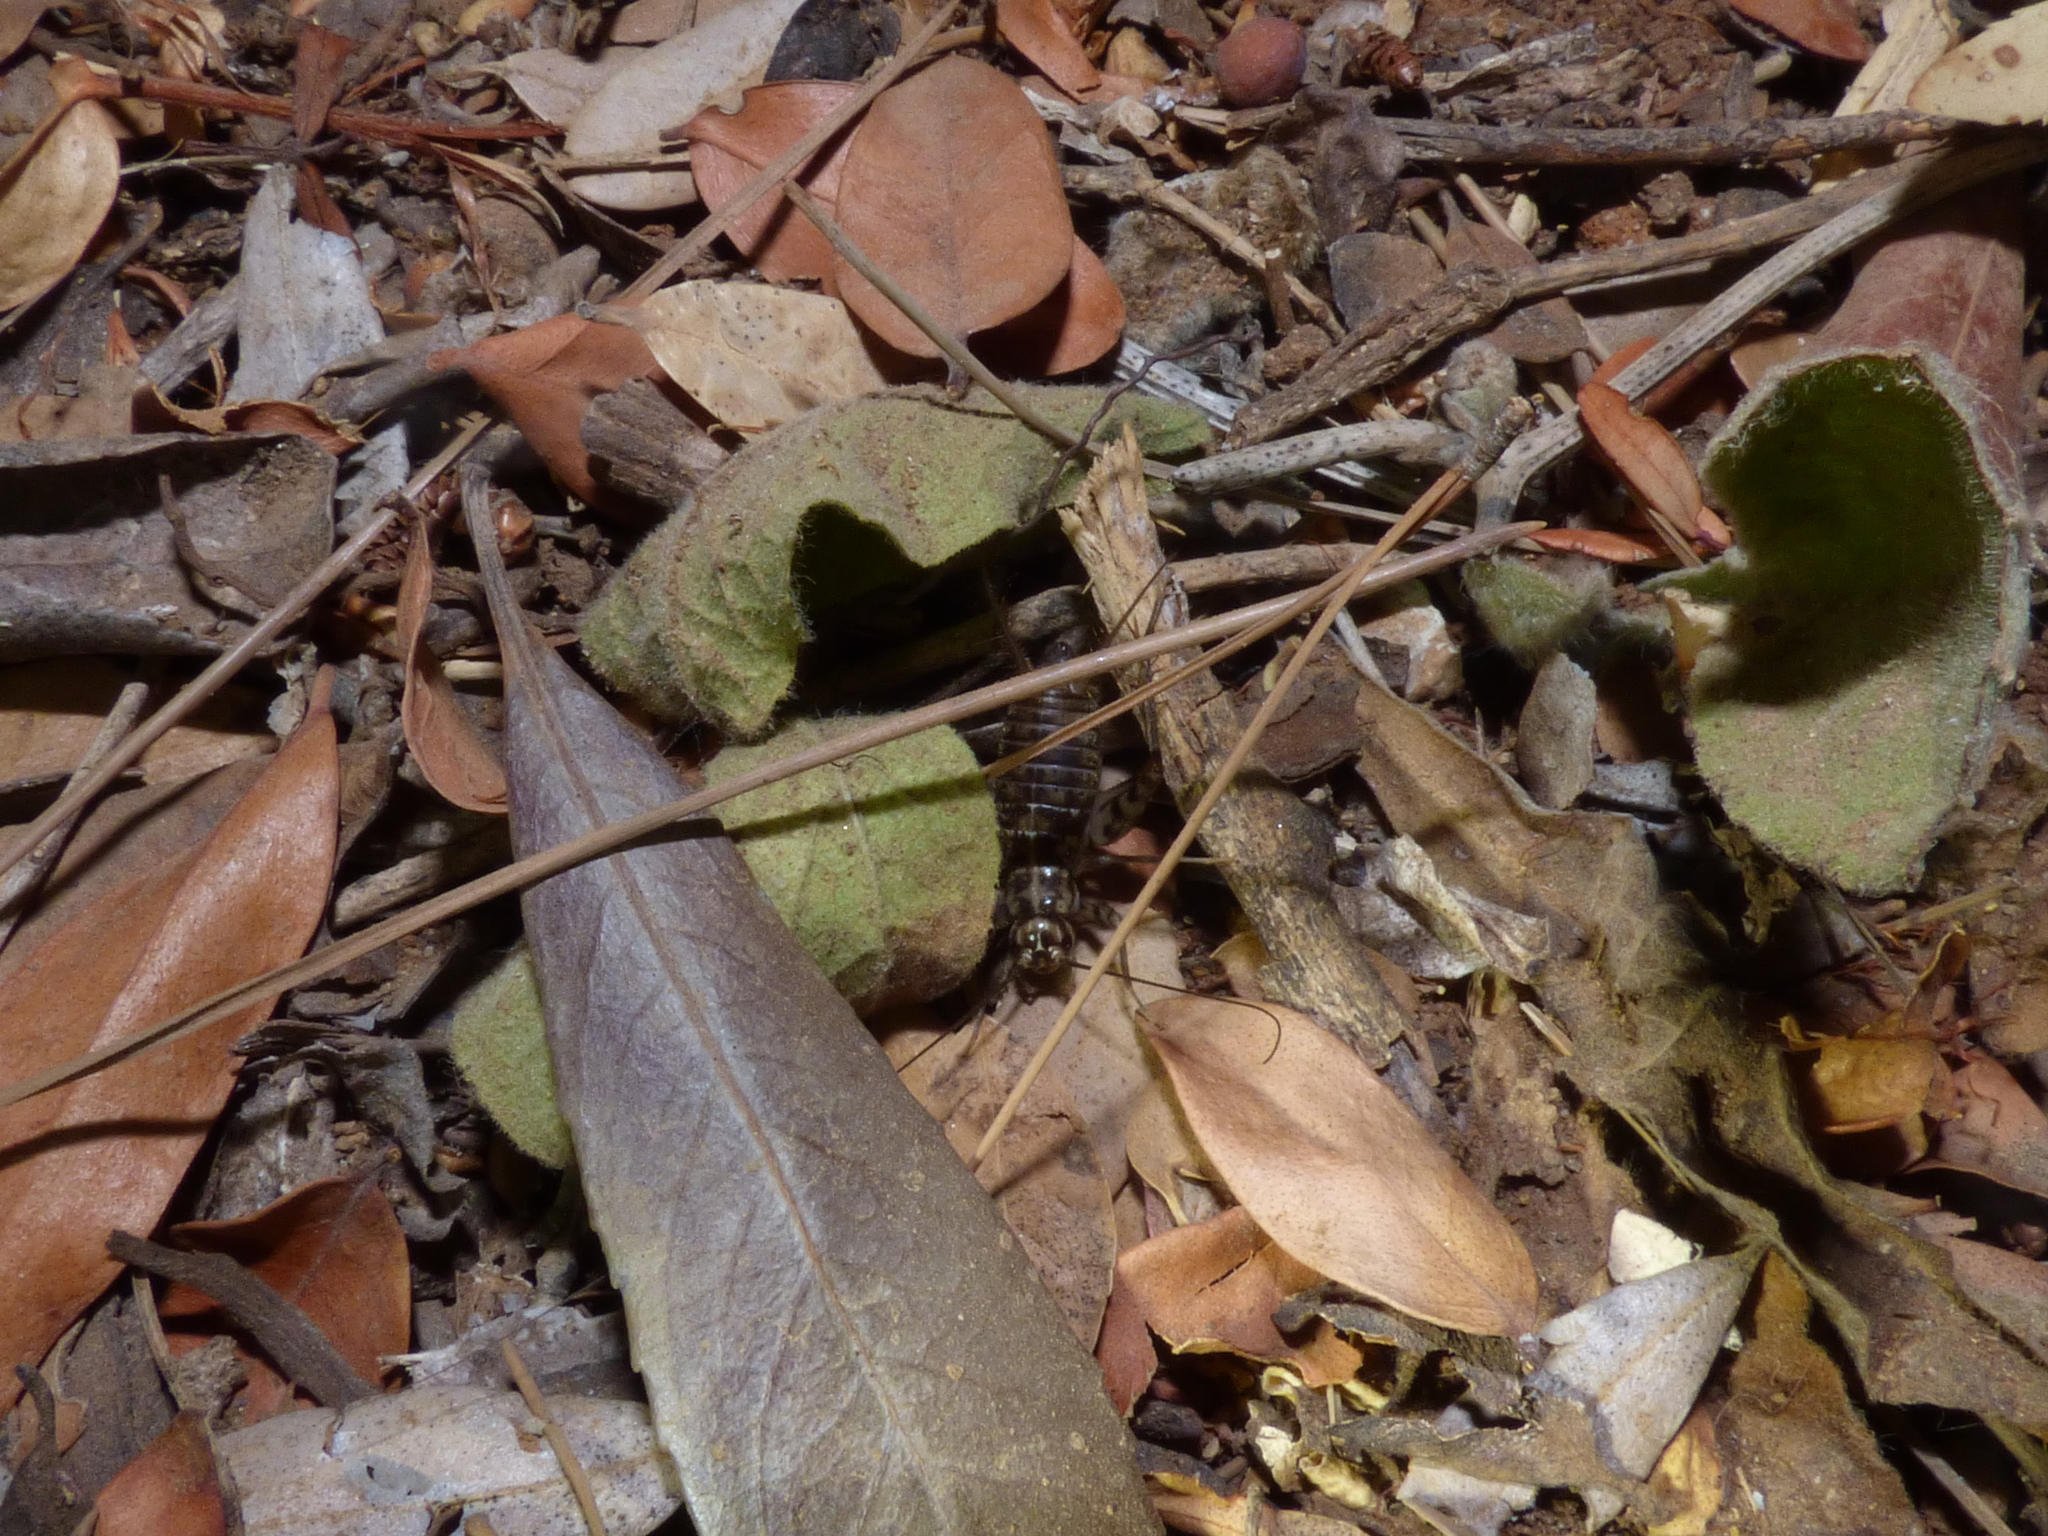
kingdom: Animalia
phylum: Arthropoda
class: Insecta
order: Orthoptera
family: Gryllidae
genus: Gryllomorpha
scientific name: Gryllomorpha dalmatina
